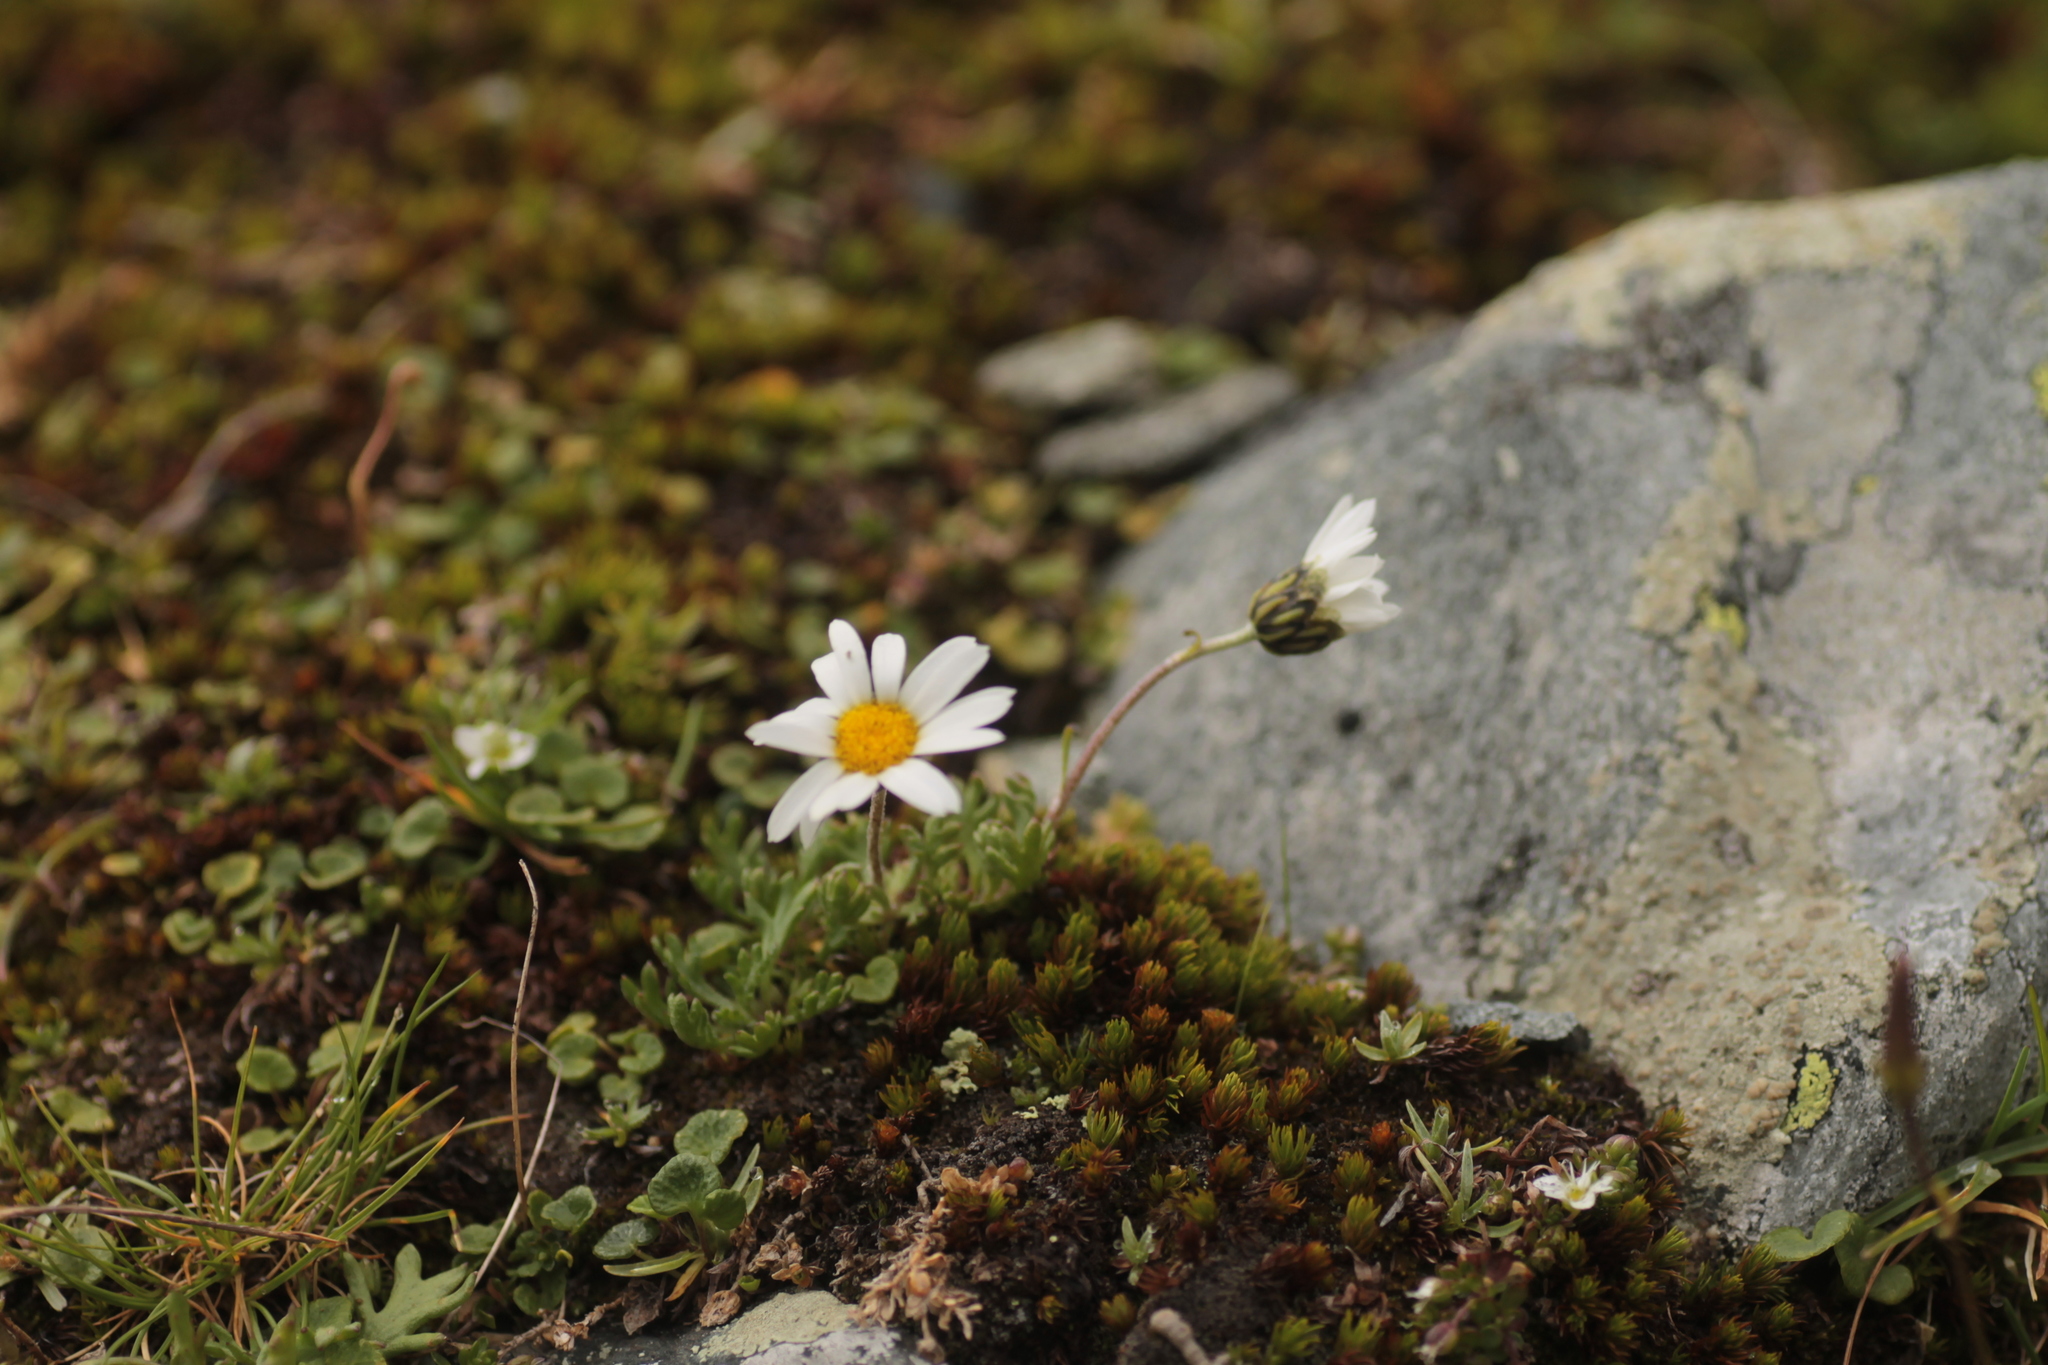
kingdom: Plantae
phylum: Tracheophyta
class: Magnoliopsida
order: Asterales
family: Asteraceae
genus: Leucanthemopsis
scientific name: Leucanthemopsis alpina
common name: Alpine moon daisy
